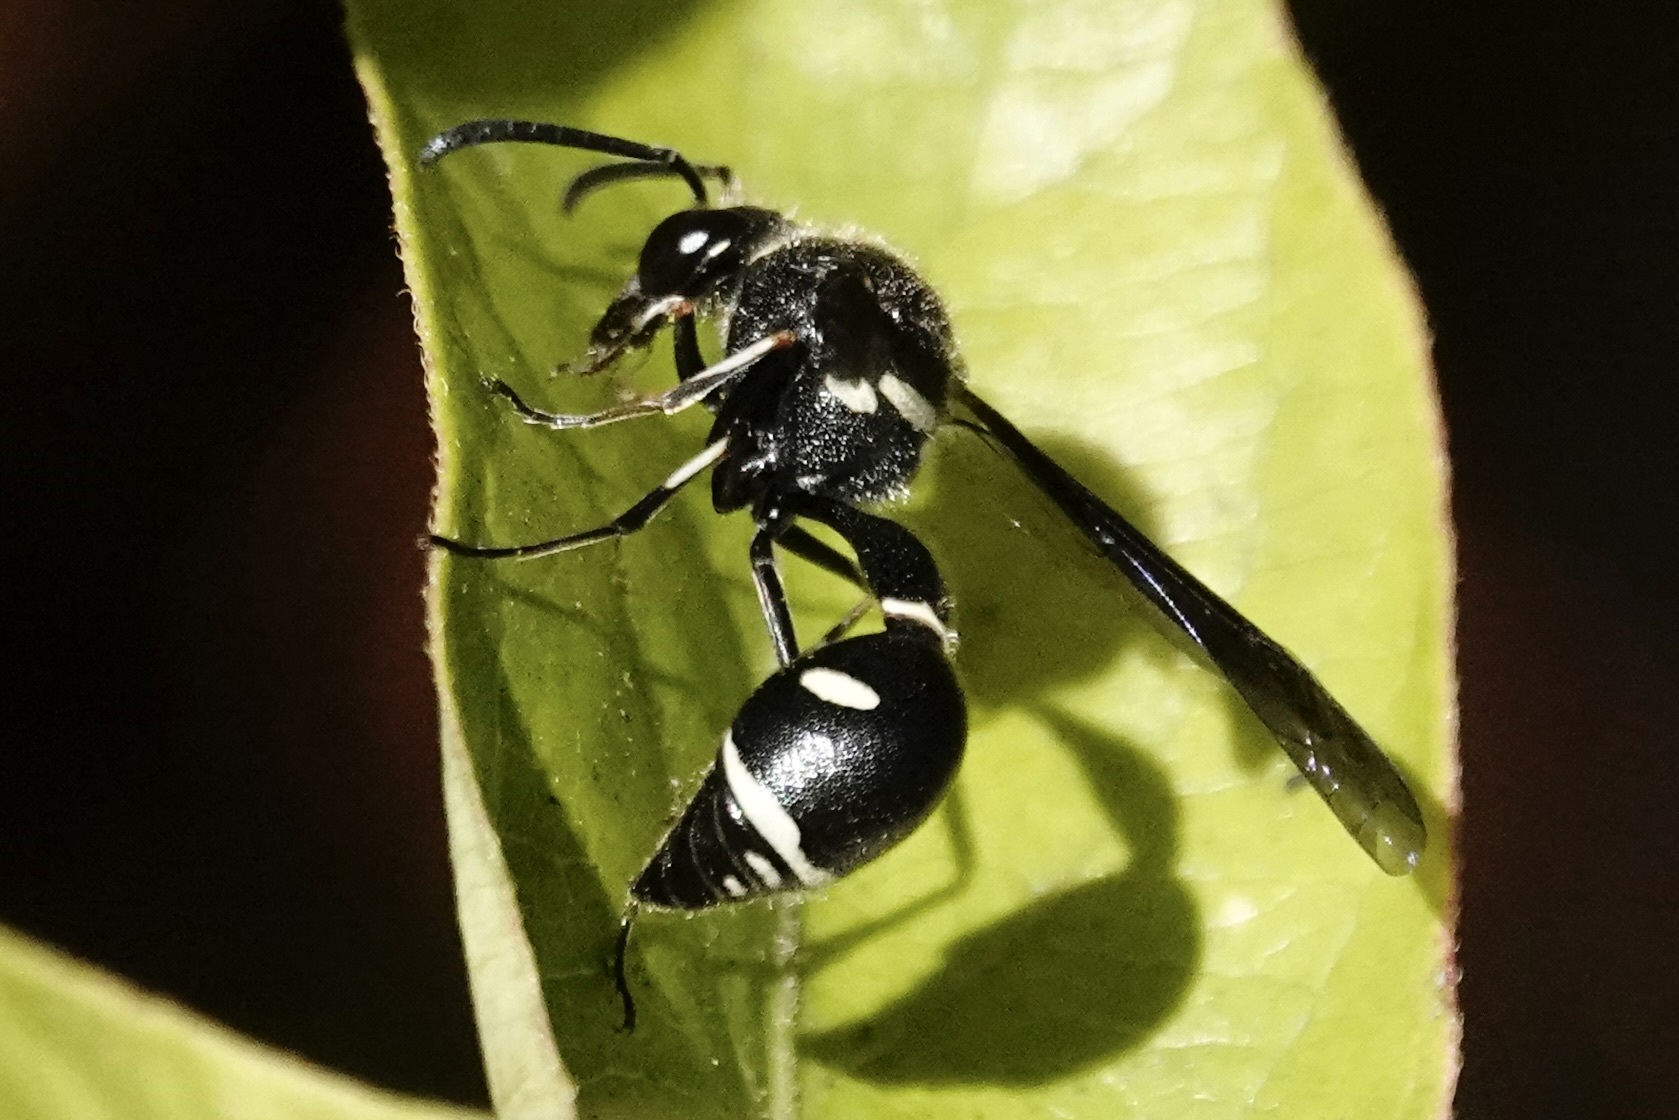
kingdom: Animalia
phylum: Arthropoda
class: Insecta
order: Hymenoptera
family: Vespidae
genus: Eumenes
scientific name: Eumenes fraternus
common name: Fraternal potter wasp
